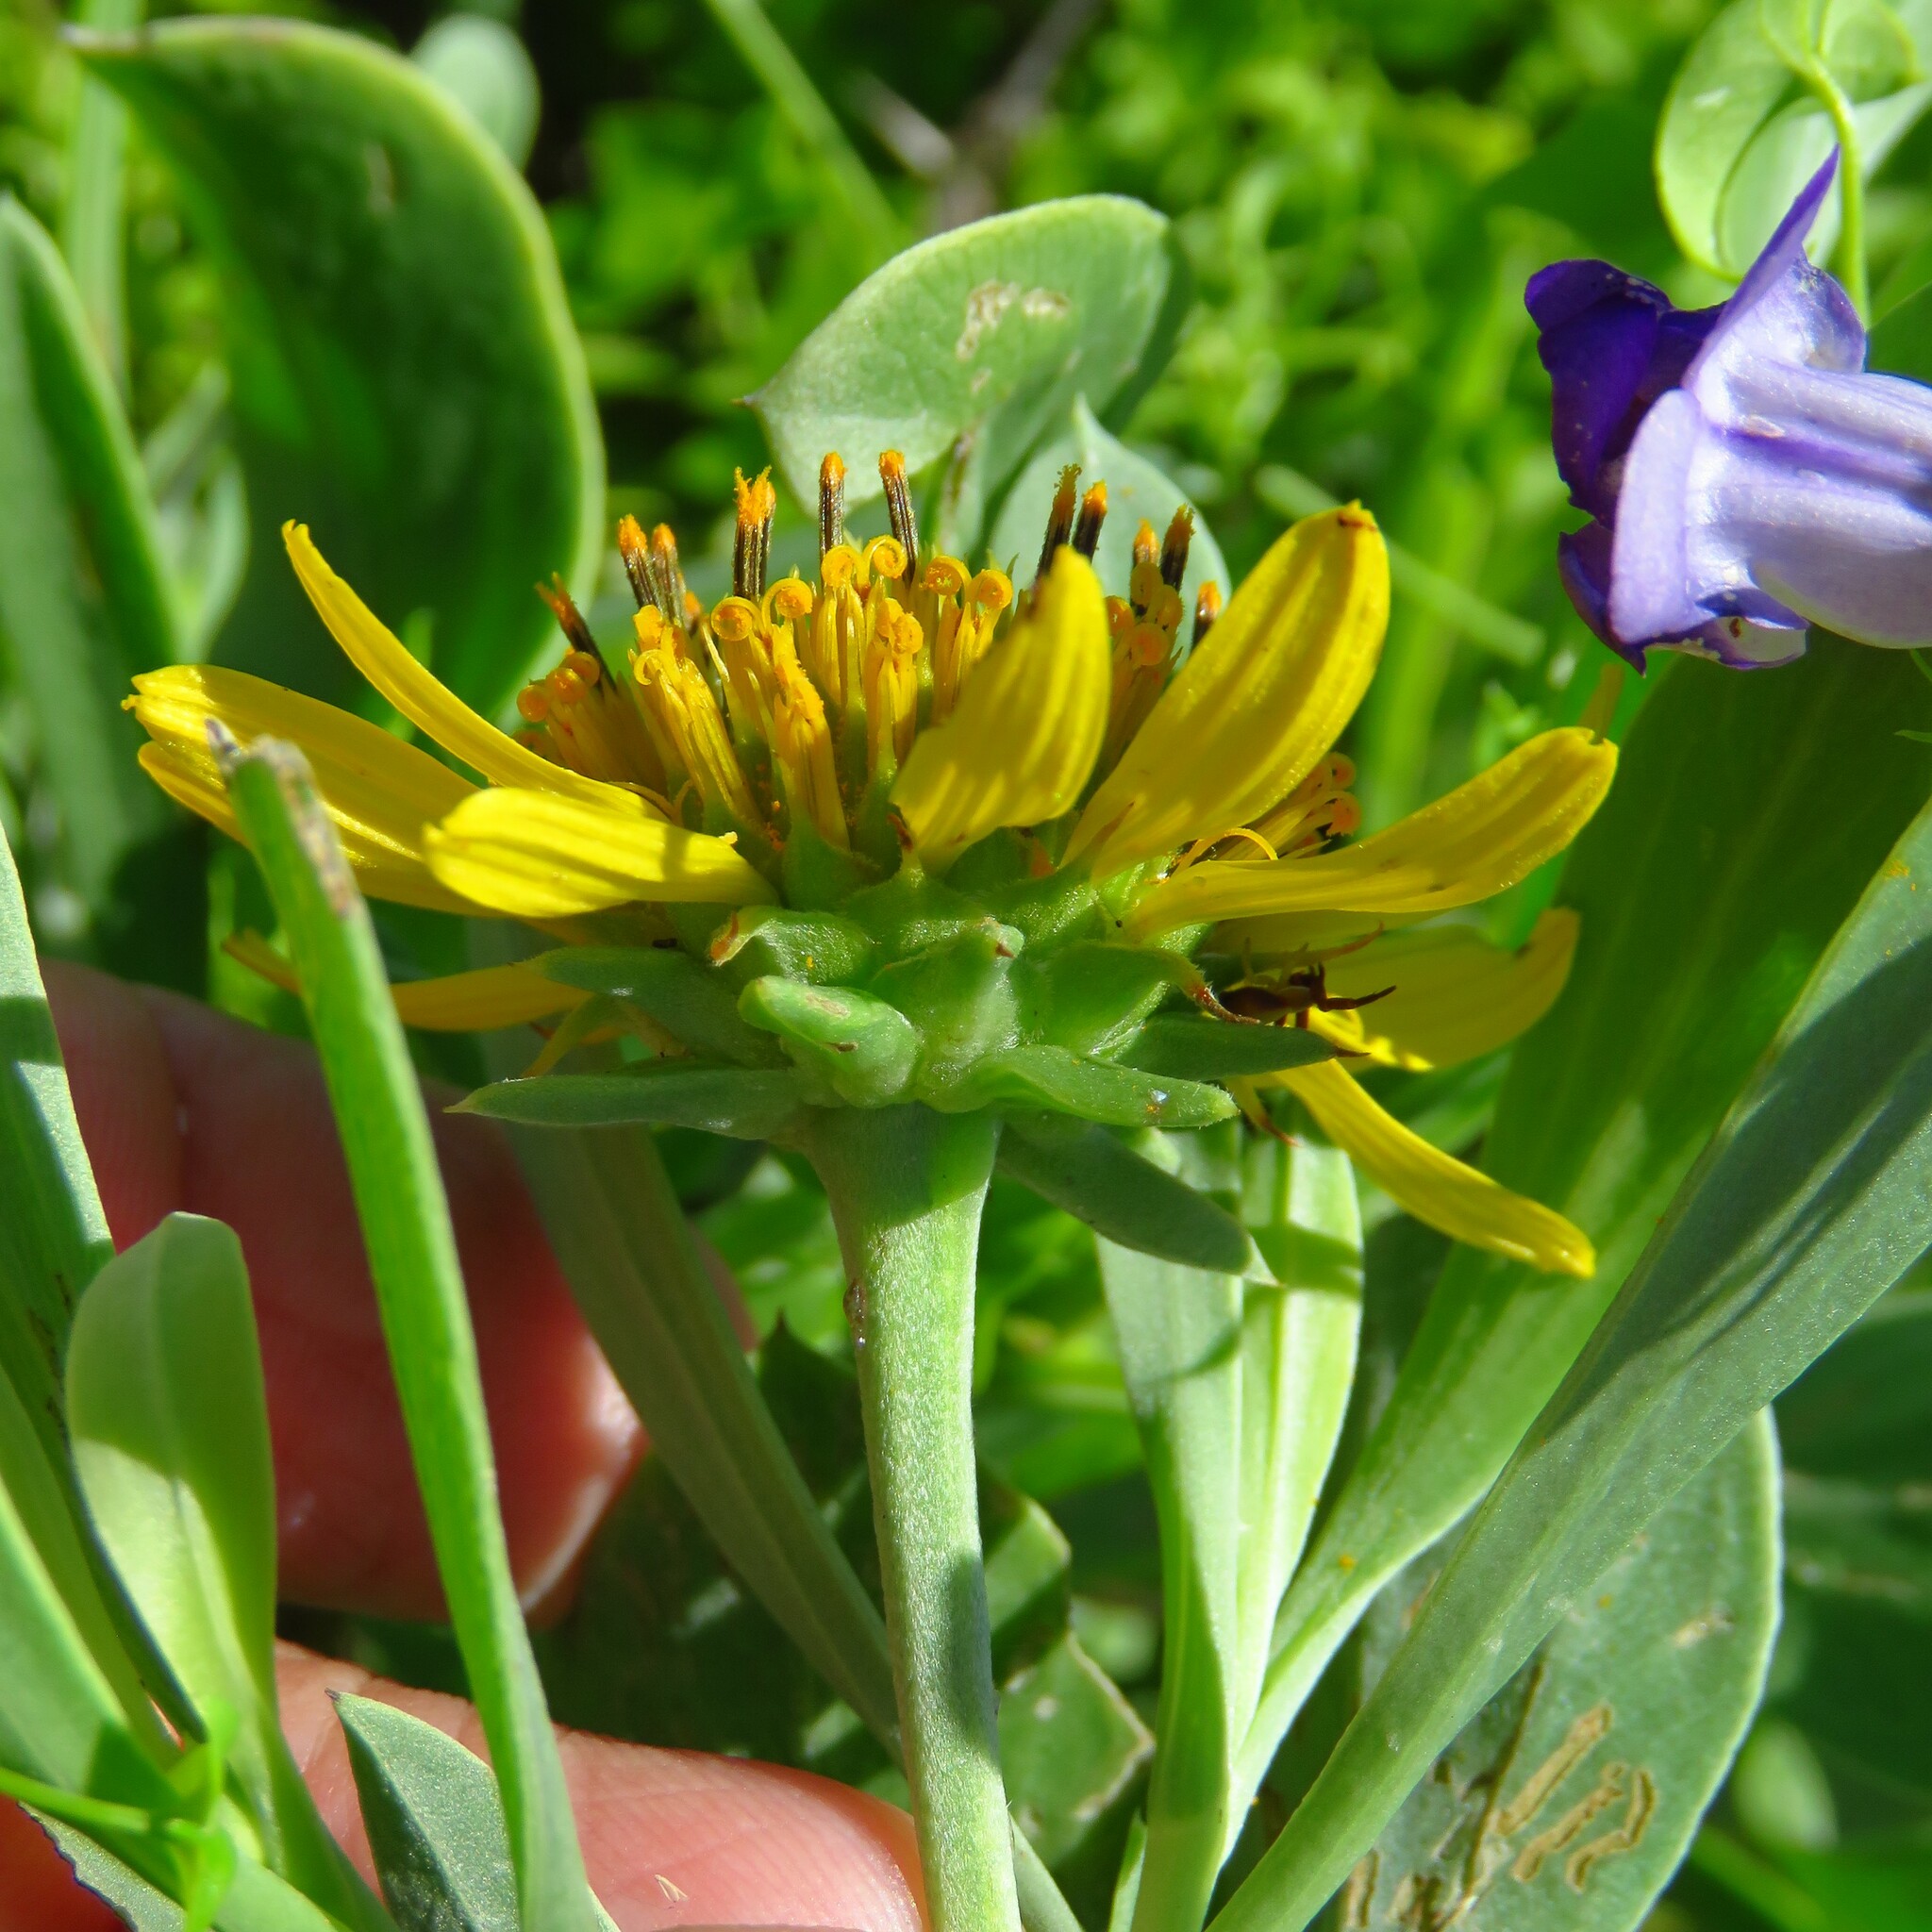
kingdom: Plantae
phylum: Tracheophyta
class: Magnoliopsida
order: Asterales
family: Asteraceae
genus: Borrichia
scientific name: Borrichia frutescens
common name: Sea oxeye
